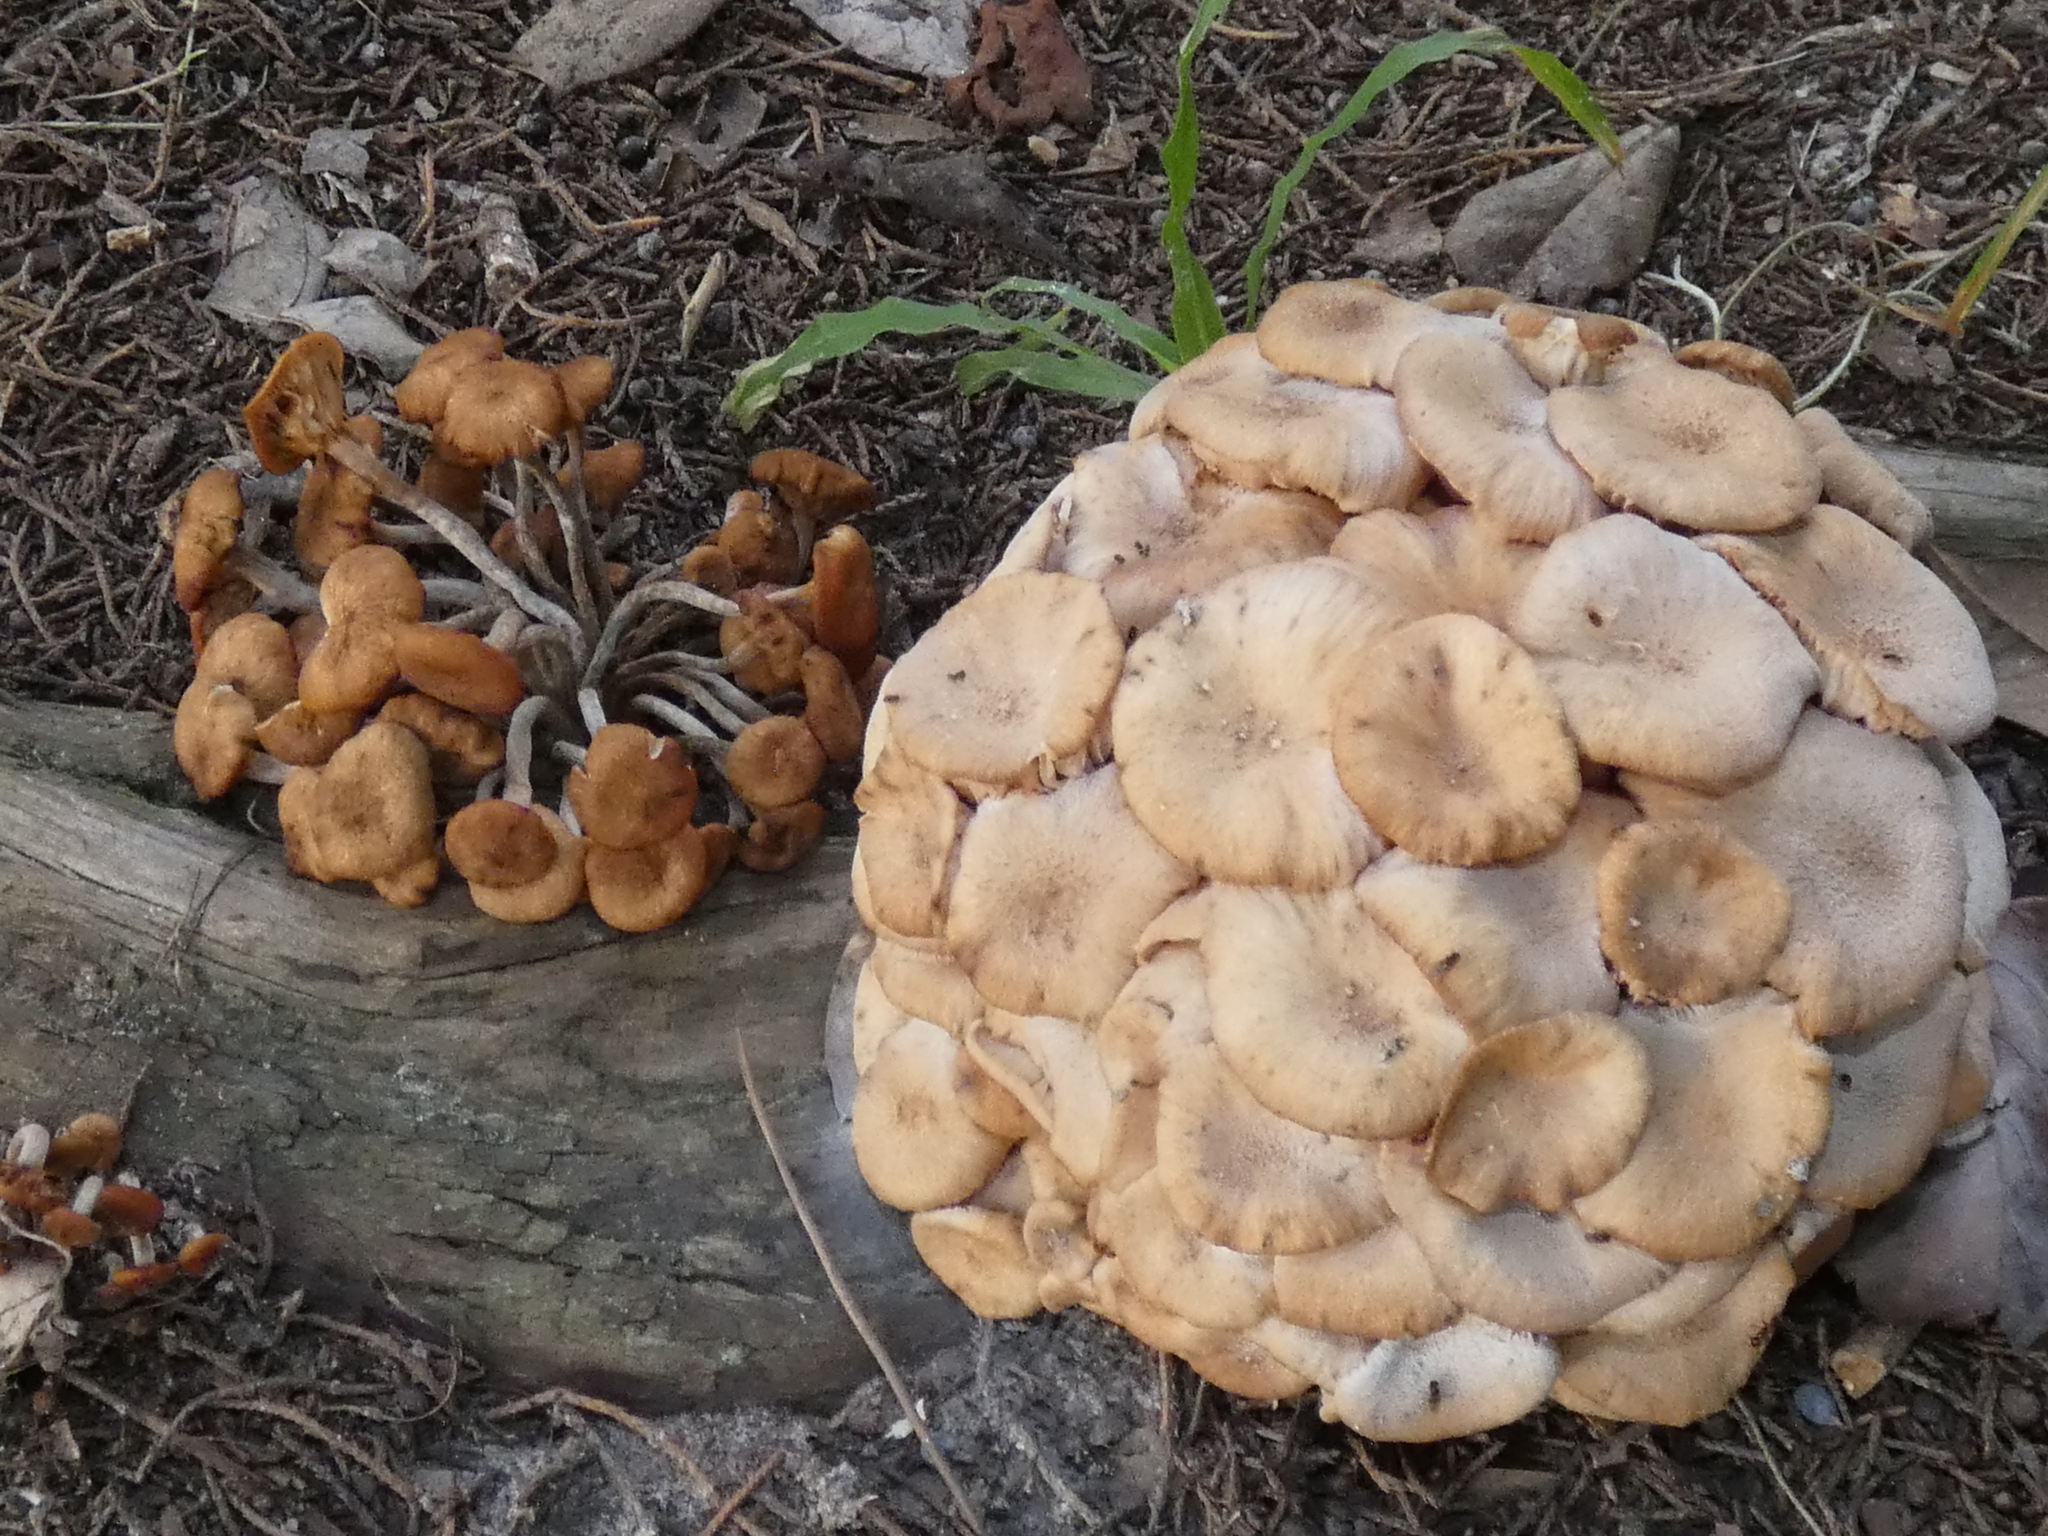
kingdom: Fungi
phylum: Basidiomycota
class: Agaricomycetes
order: Agaricales
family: Physalacriaceae
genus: Desarmillaria
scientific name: Desarmillaria caespitosa
